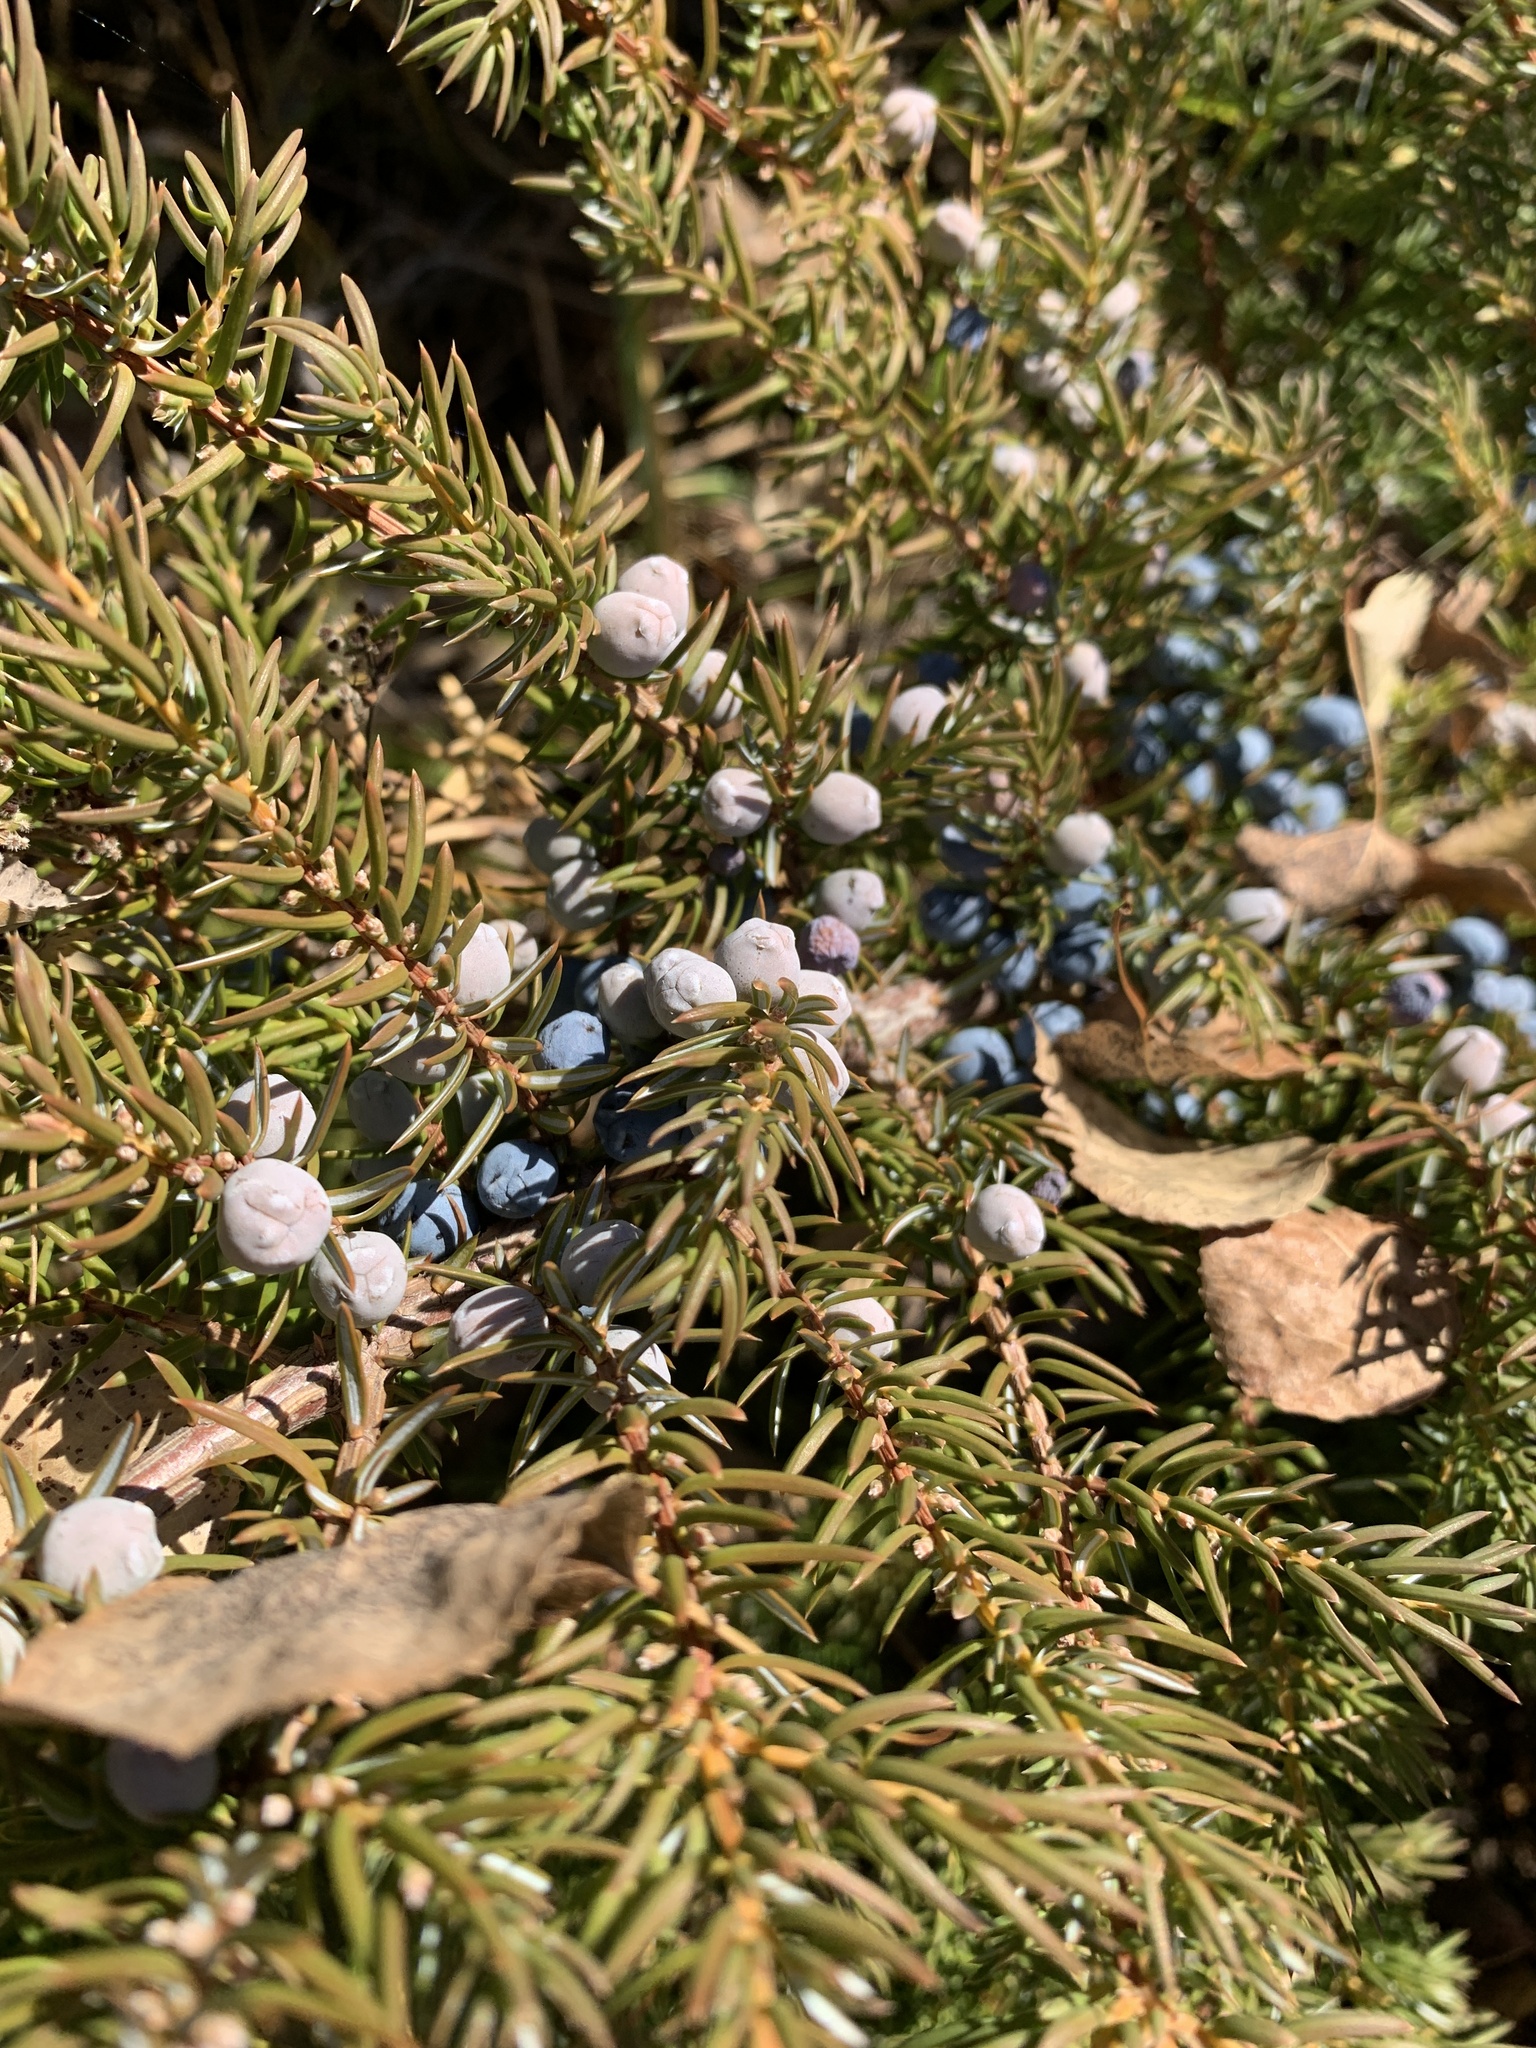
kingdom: Plantae
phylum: Tracheophyta
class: Pinopsida
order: Pinales
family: Cupressaceae
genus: Juniperus
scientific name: Juniperus communis
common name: Common juniper
